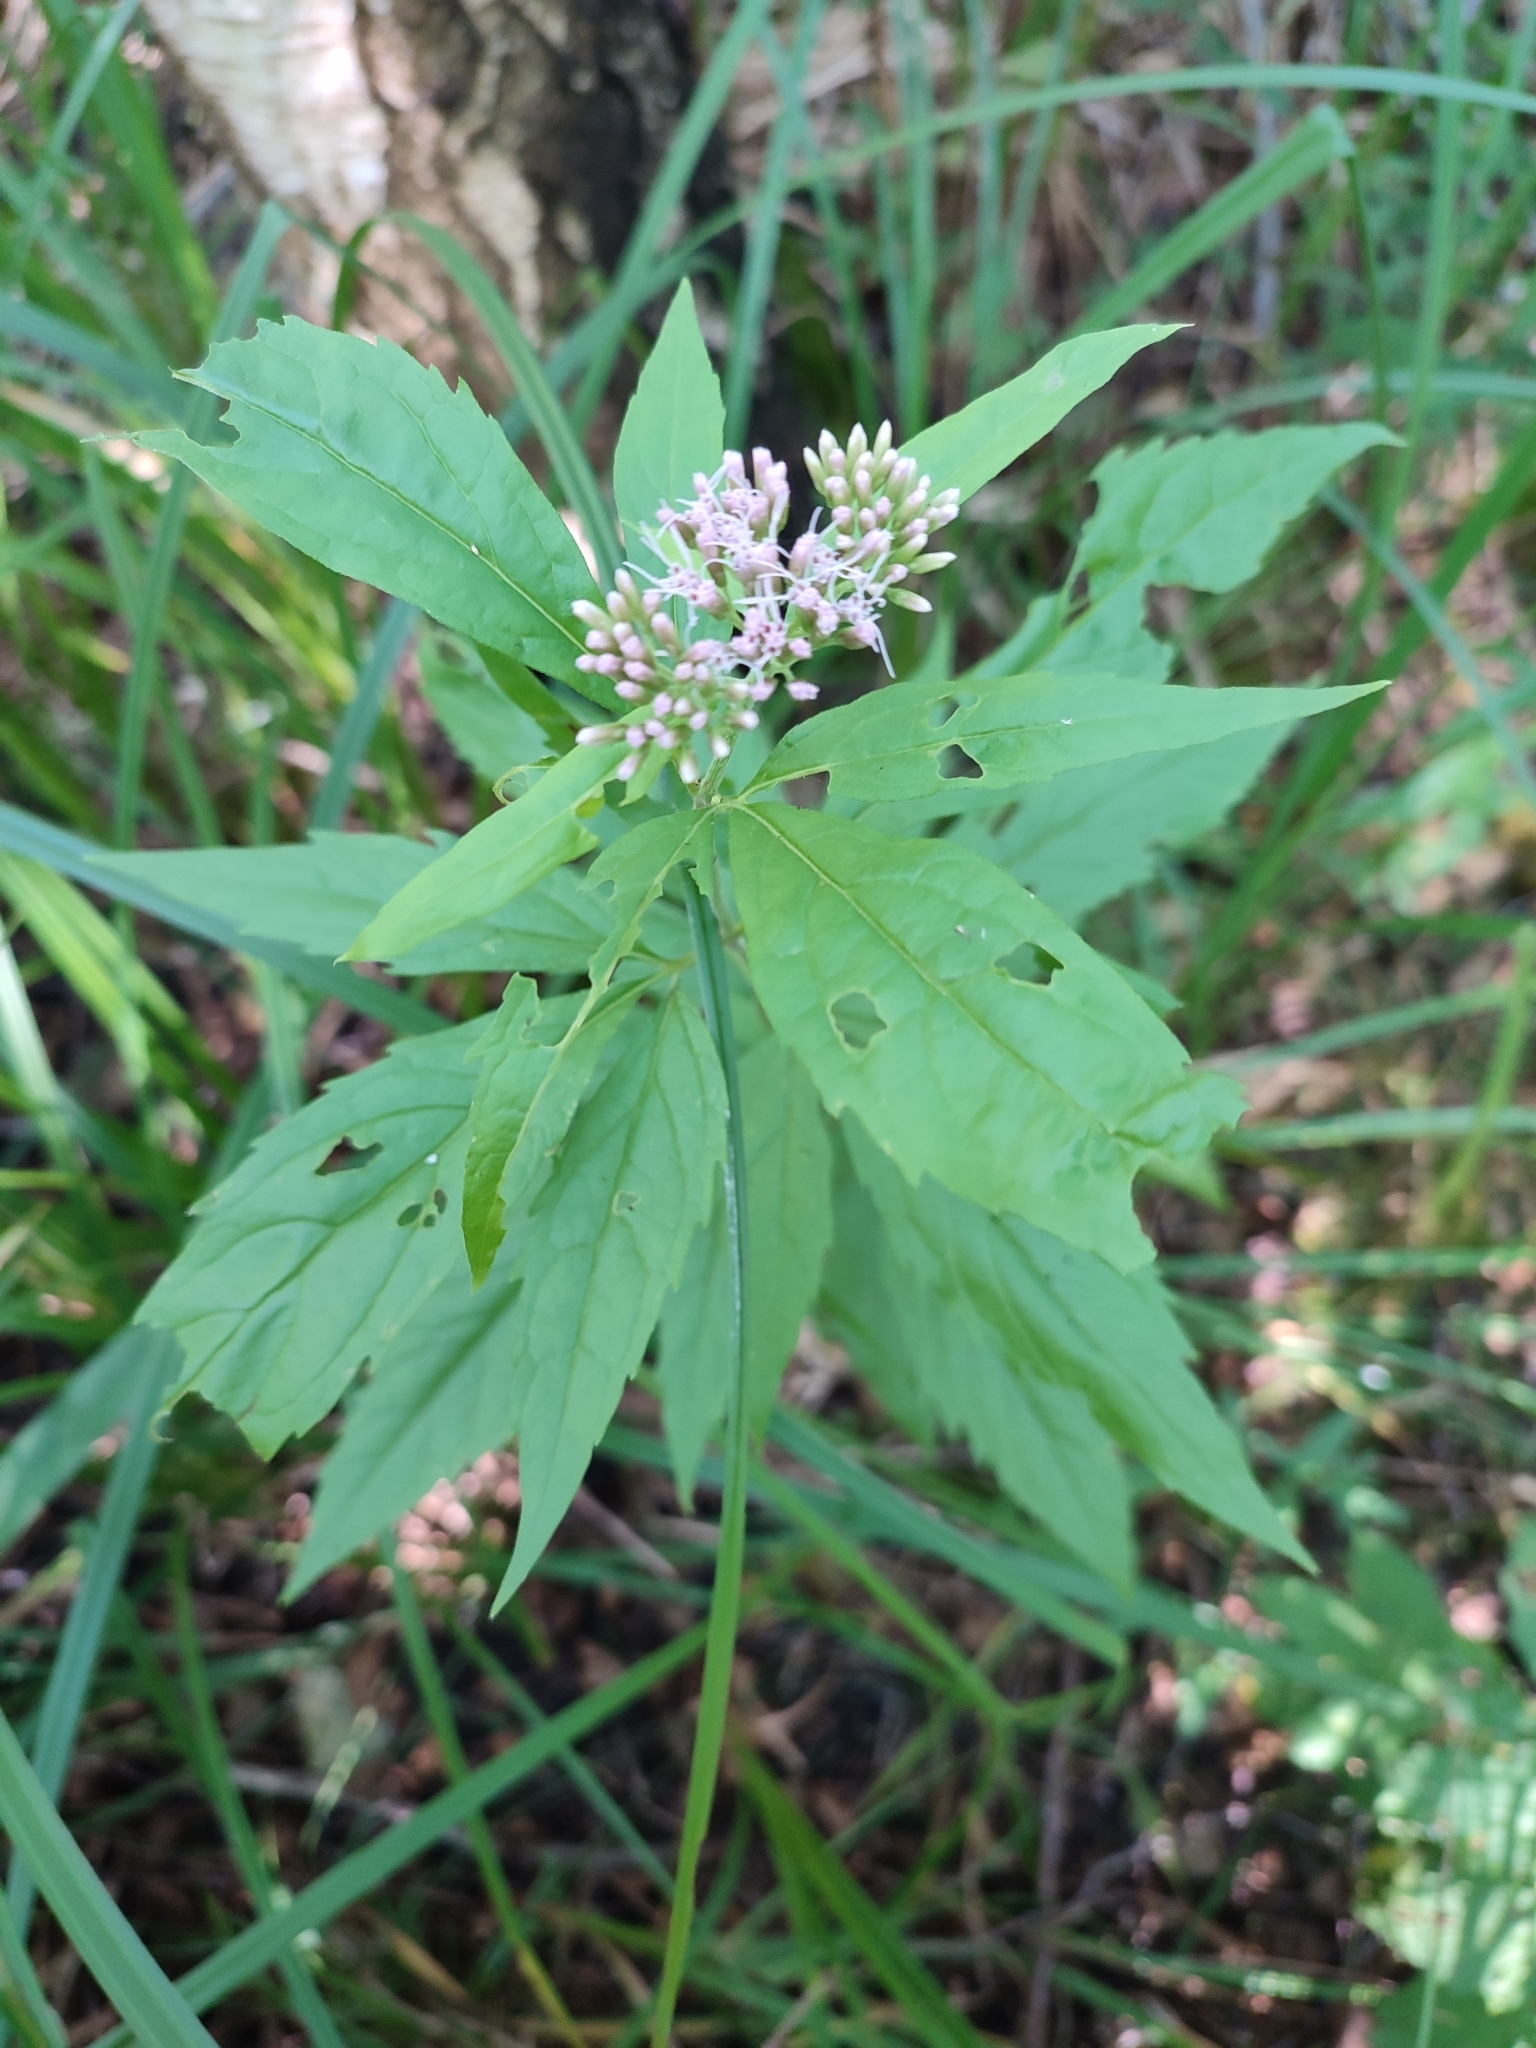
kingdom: Plantae
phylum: Tracheophyta
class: Magnoliopsida
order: Asterales
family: Asteraceae
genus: Eupatorium
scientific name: Eupatorium cannabinum
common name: Hemp-agrimony
